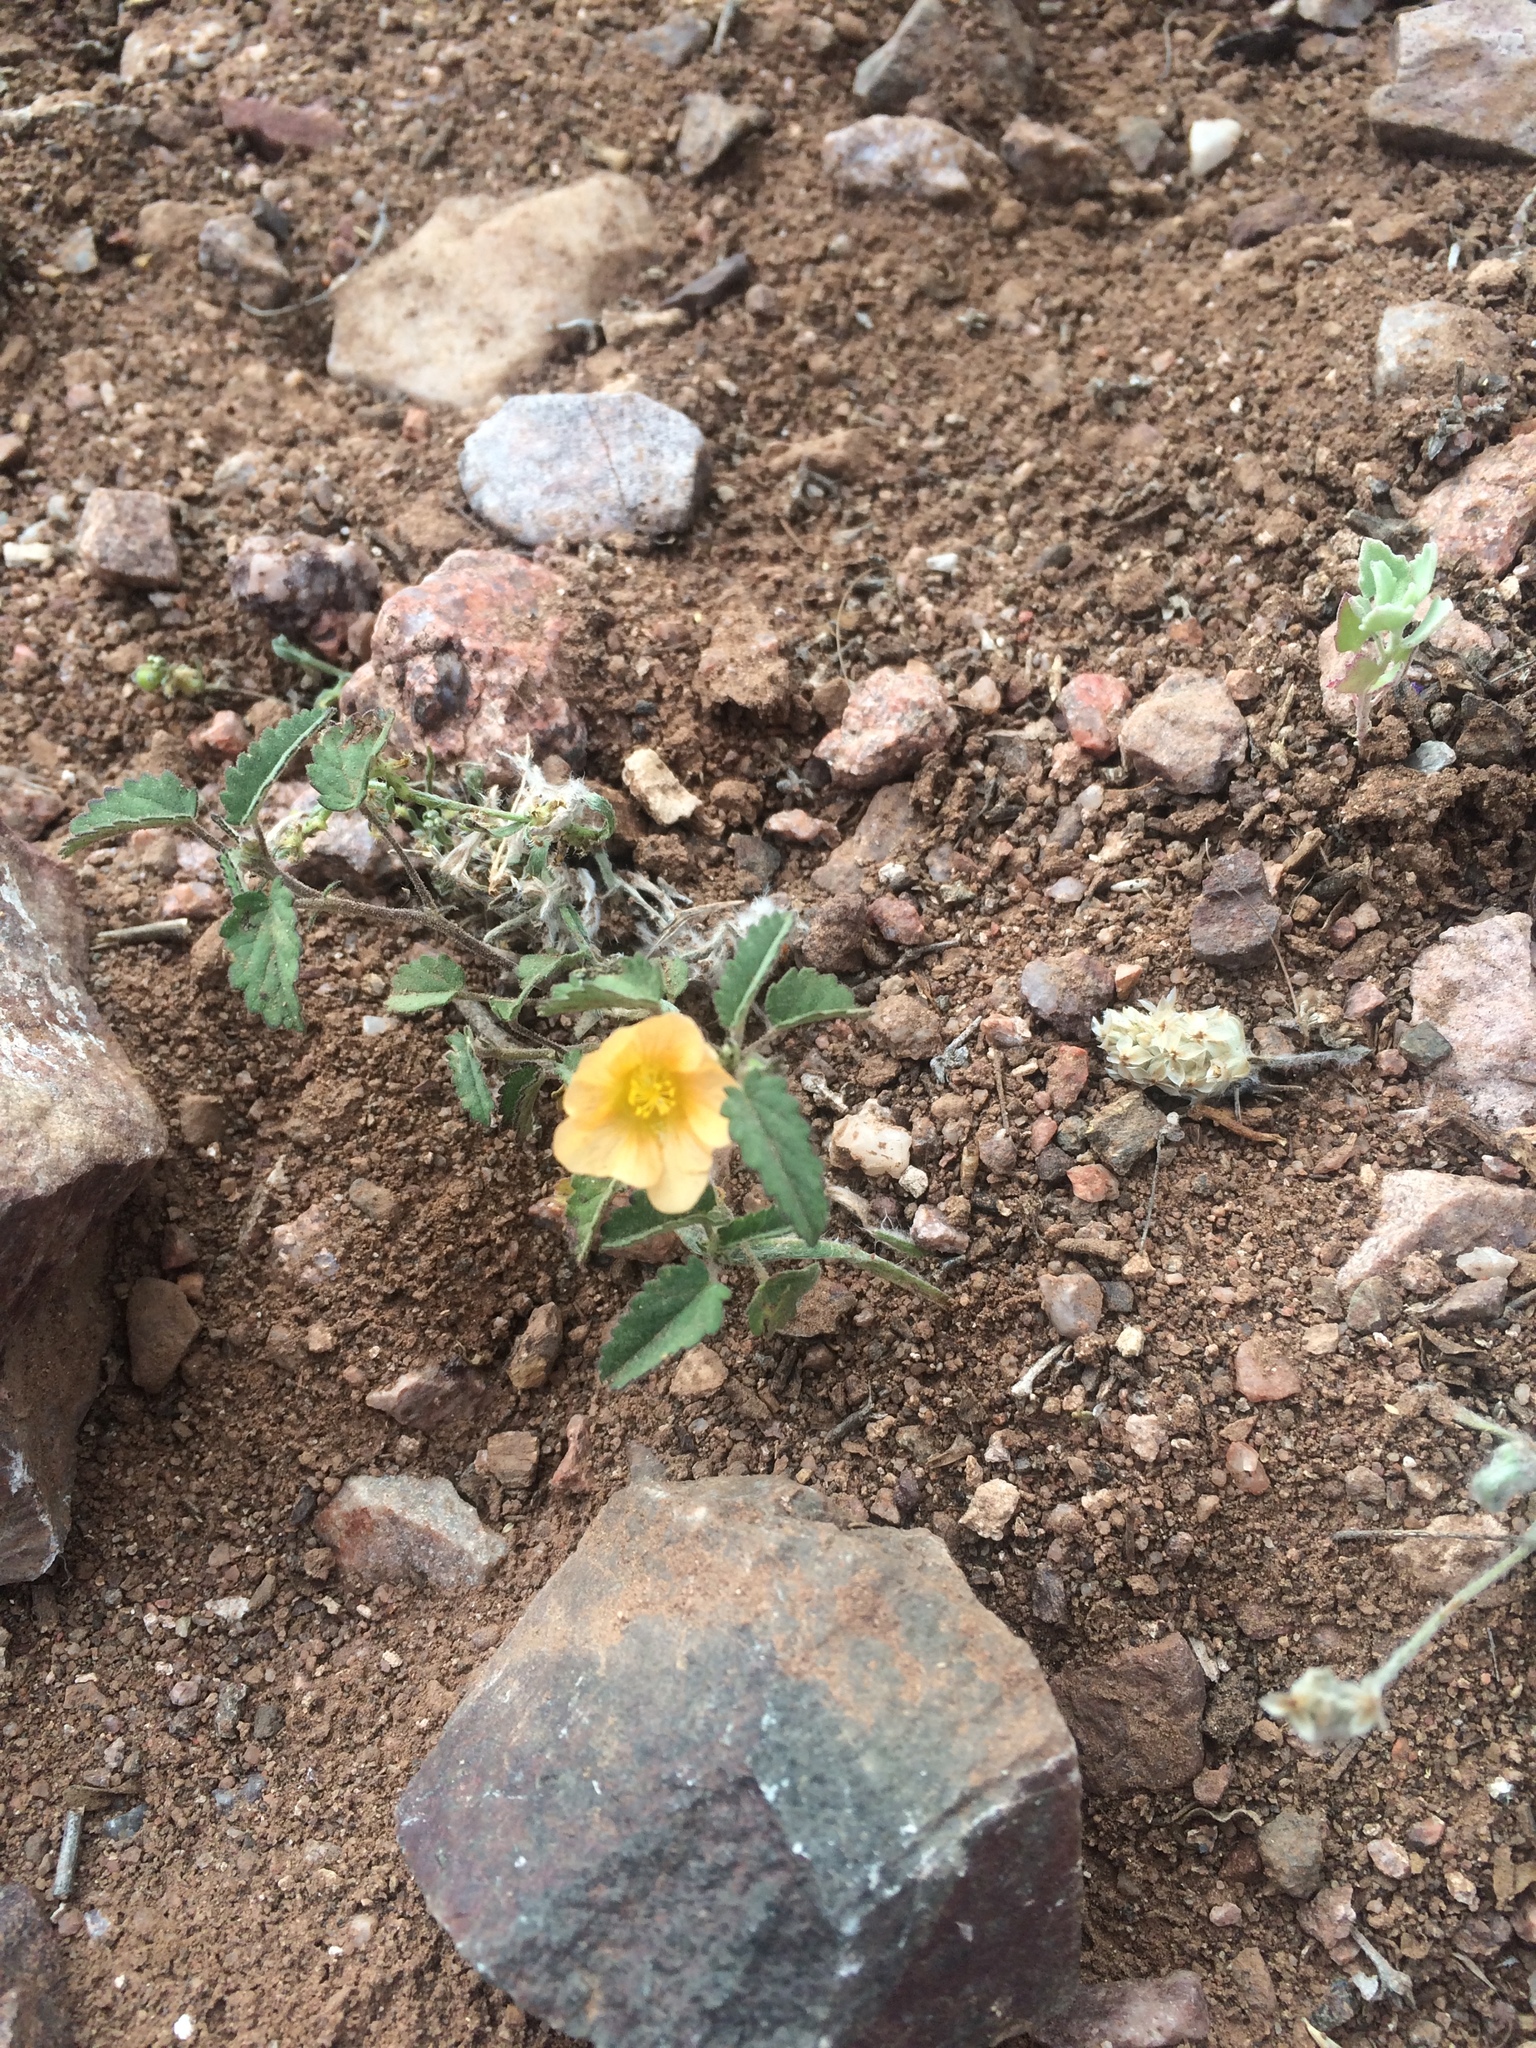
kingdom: Plantae
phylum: Tracheophyta
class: Magnoliopsida
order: Malvales
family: Malvaceae
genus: Sida
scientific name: Sida abutilifolia
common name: Spreading fanpetals
